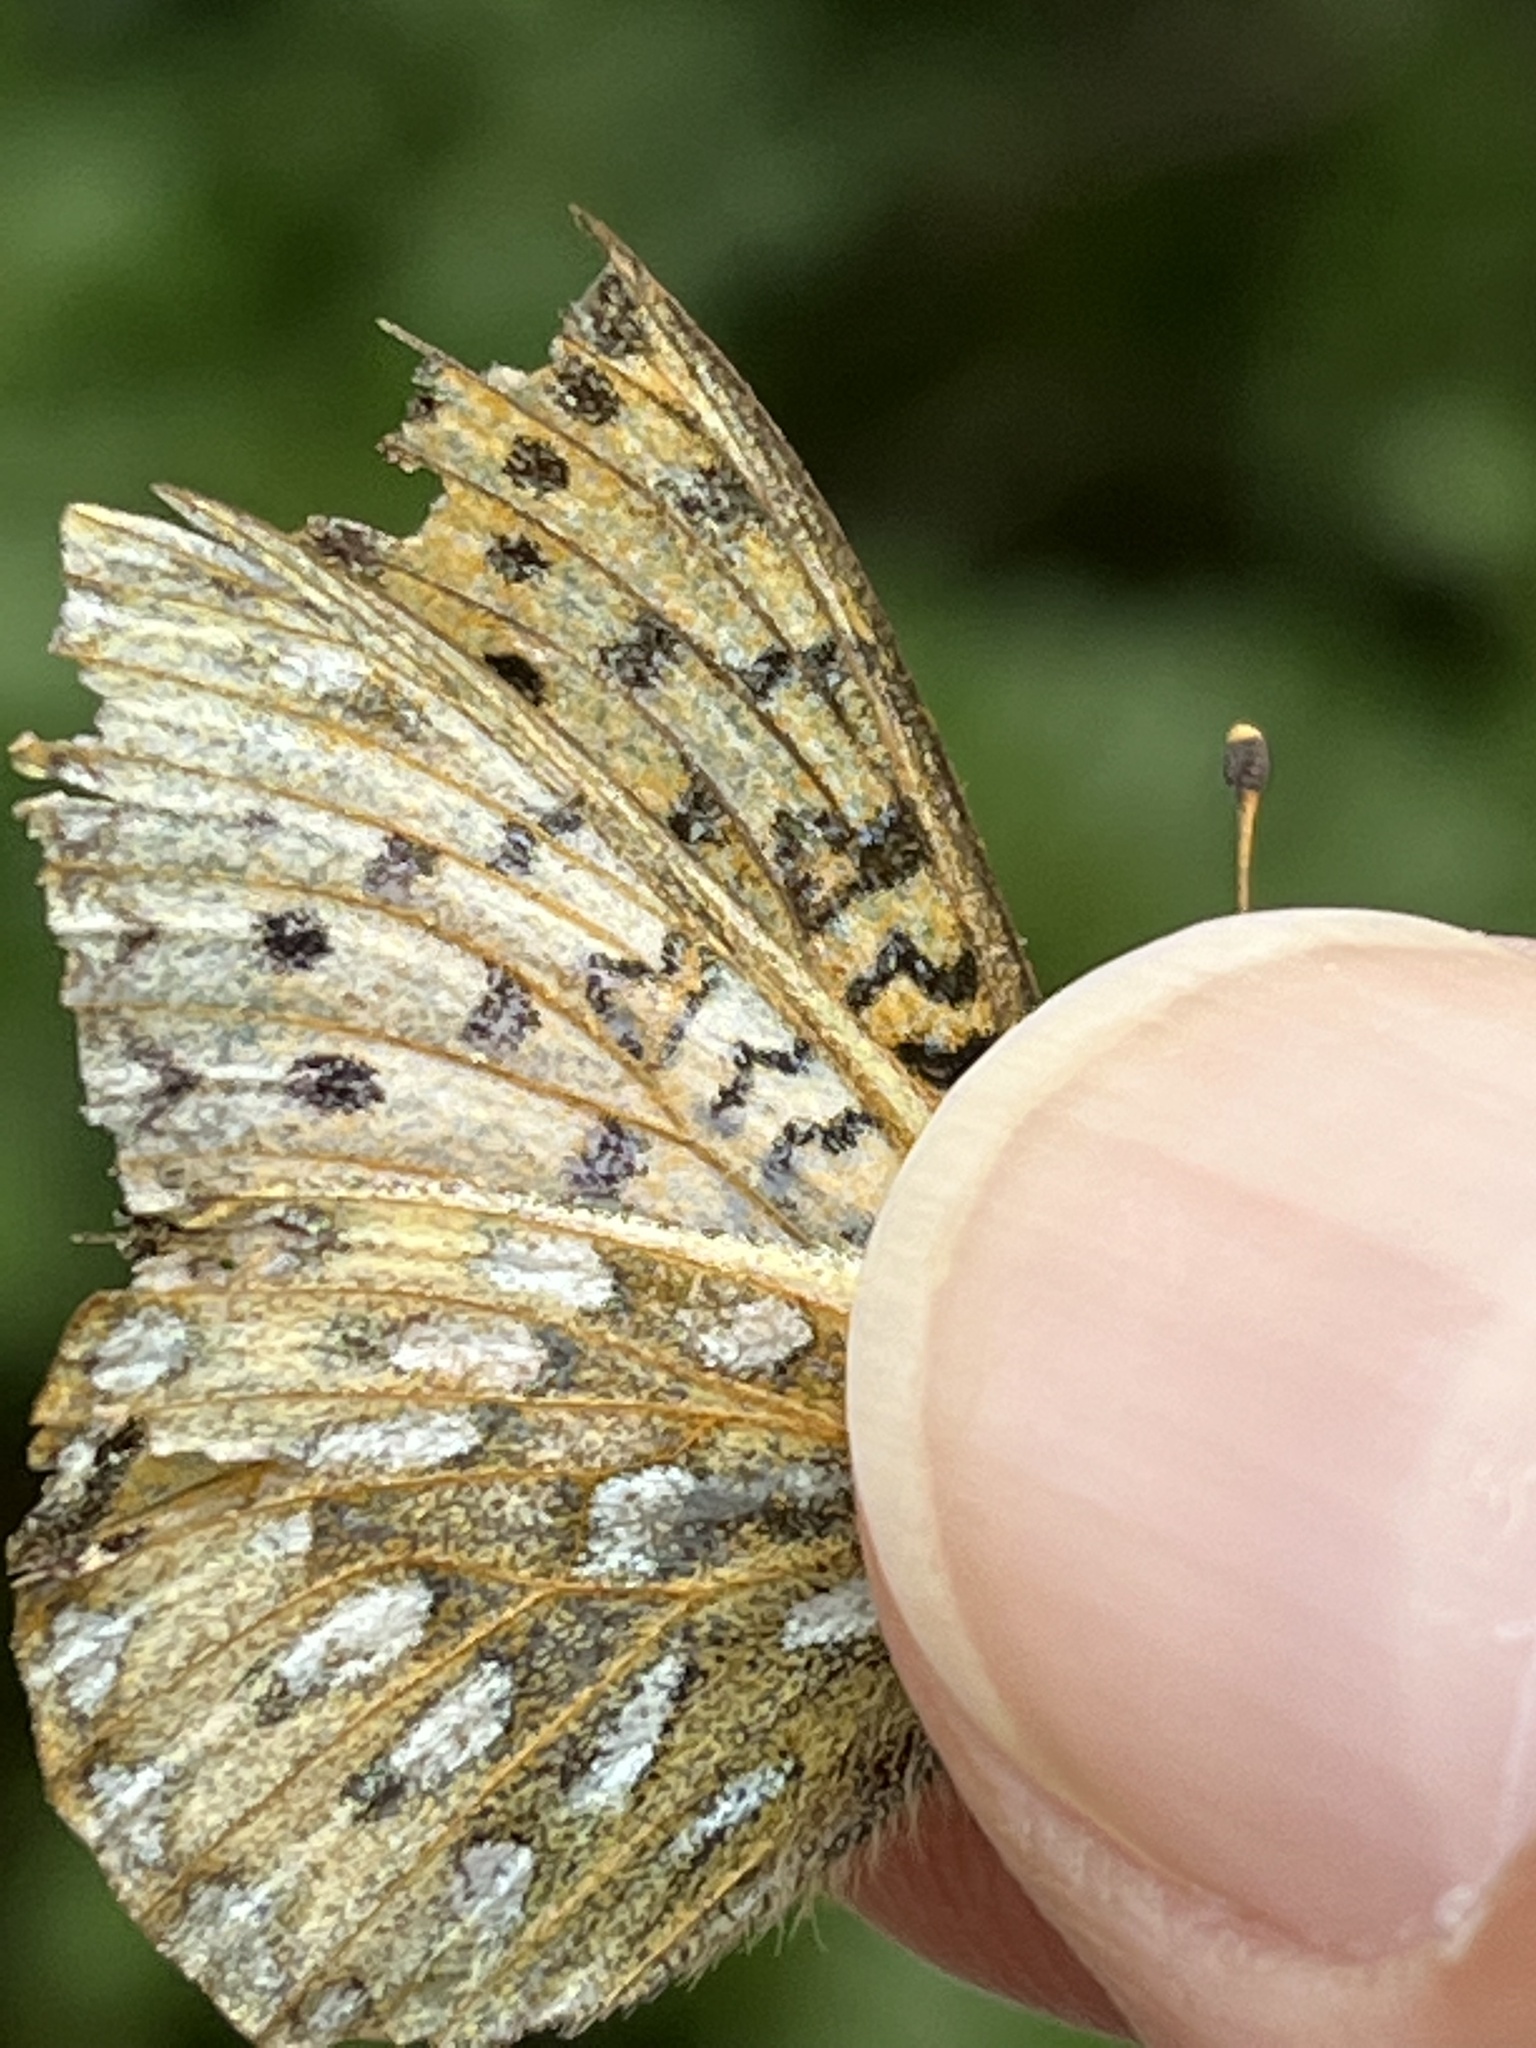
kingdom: Animalia
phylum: Arthropoda
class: Insecta
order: Lepidoptera
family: Nymphalidae
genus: Speyeria
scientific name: Speyeria mormonia
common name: Mormon fritillary
